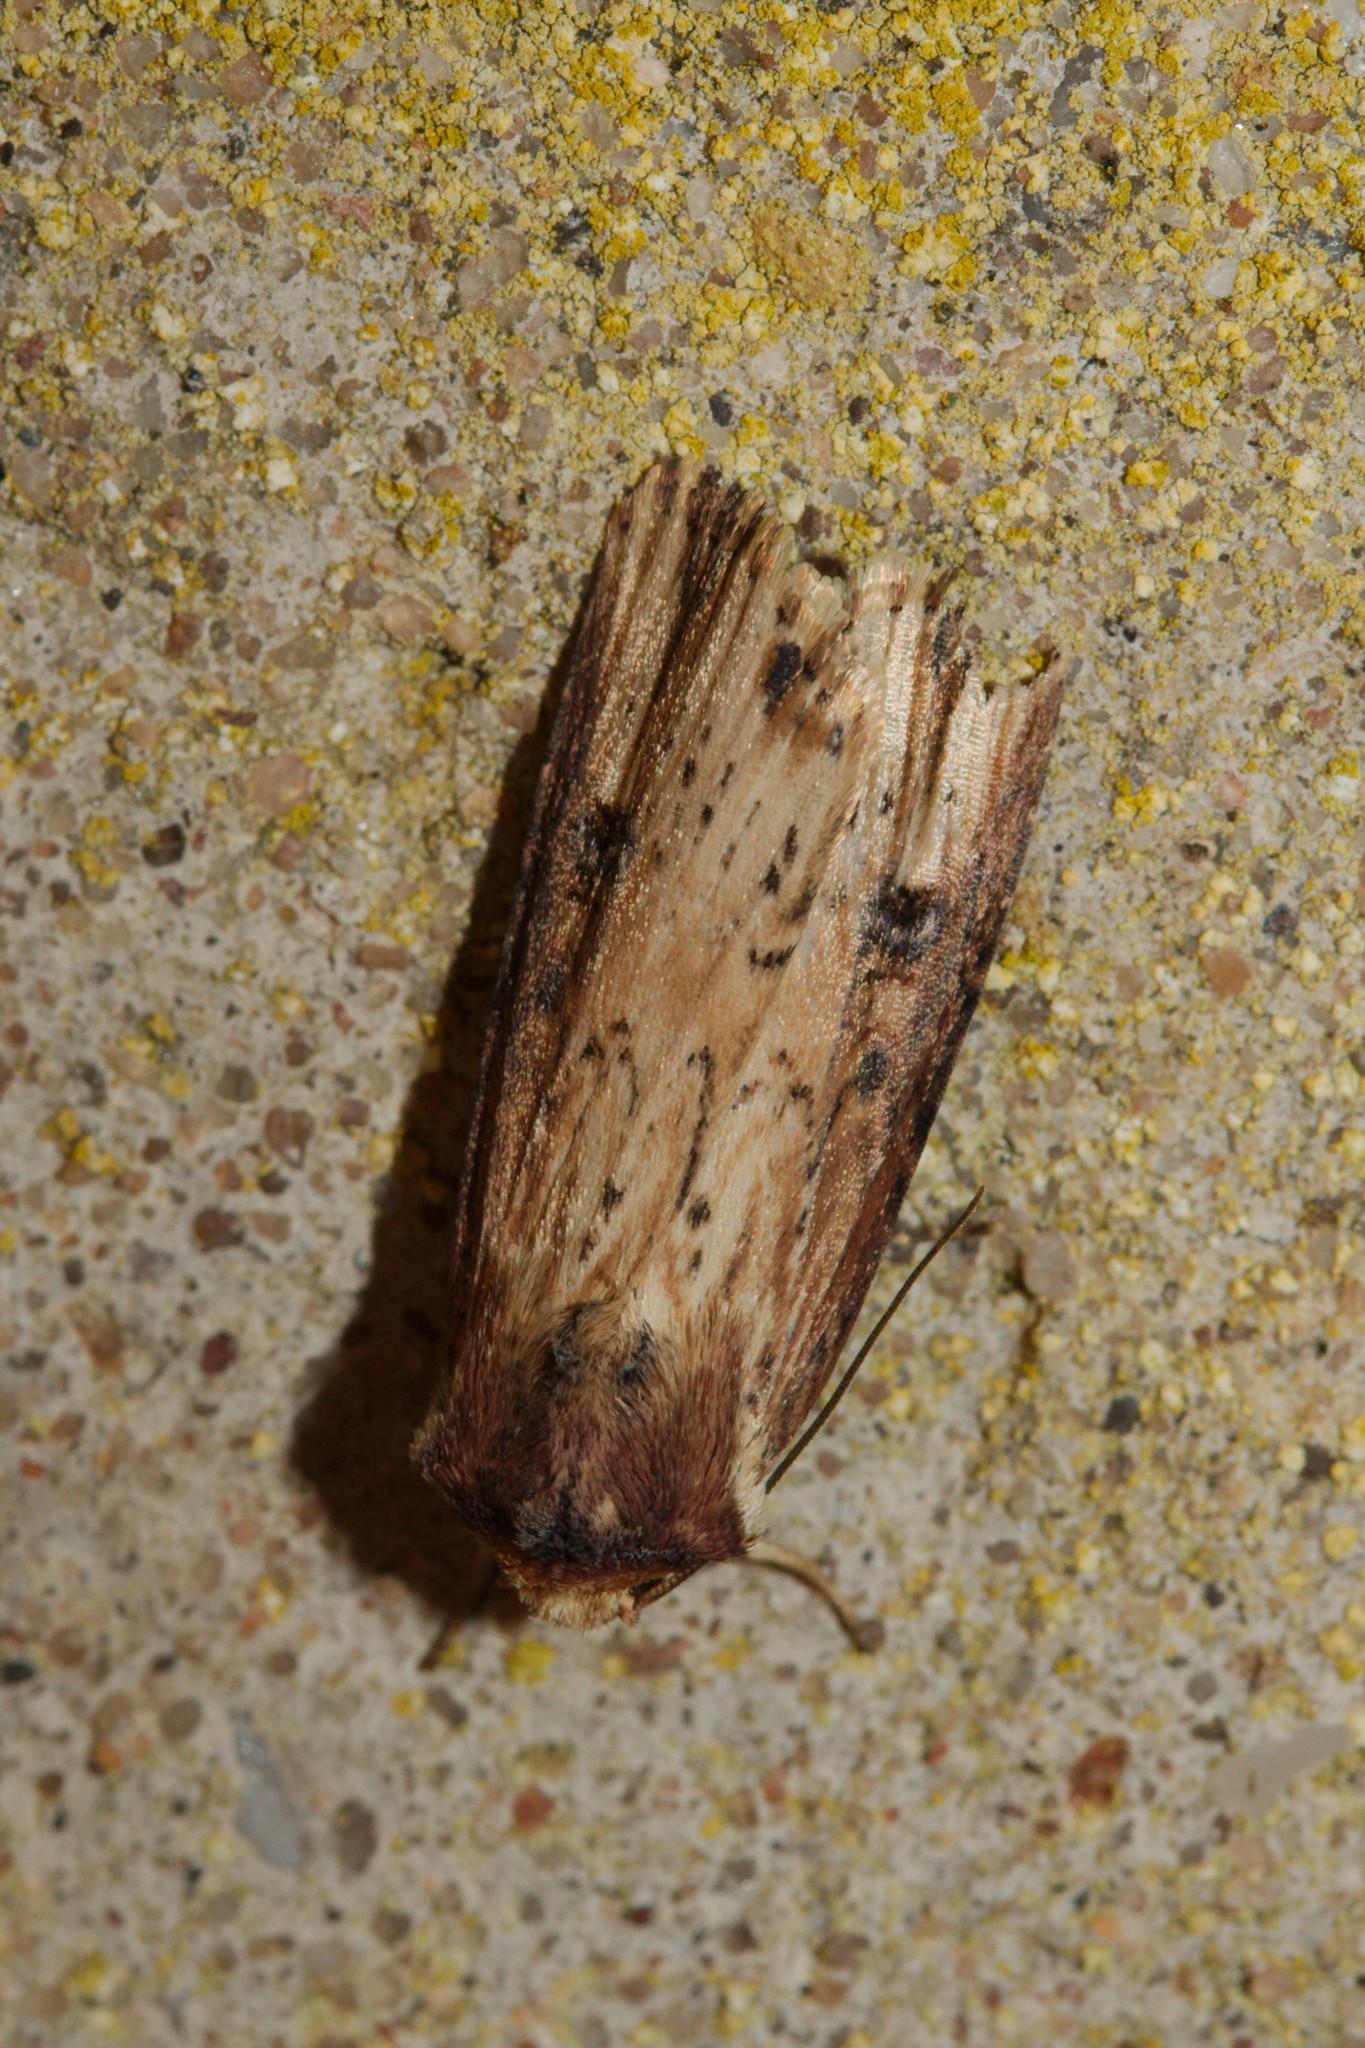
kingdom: Animalia
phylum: Arthropoda
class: Insecta
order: Lepidoptera
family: Noctuidae
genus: Axylia
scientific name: Axylia putris
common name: Flame
